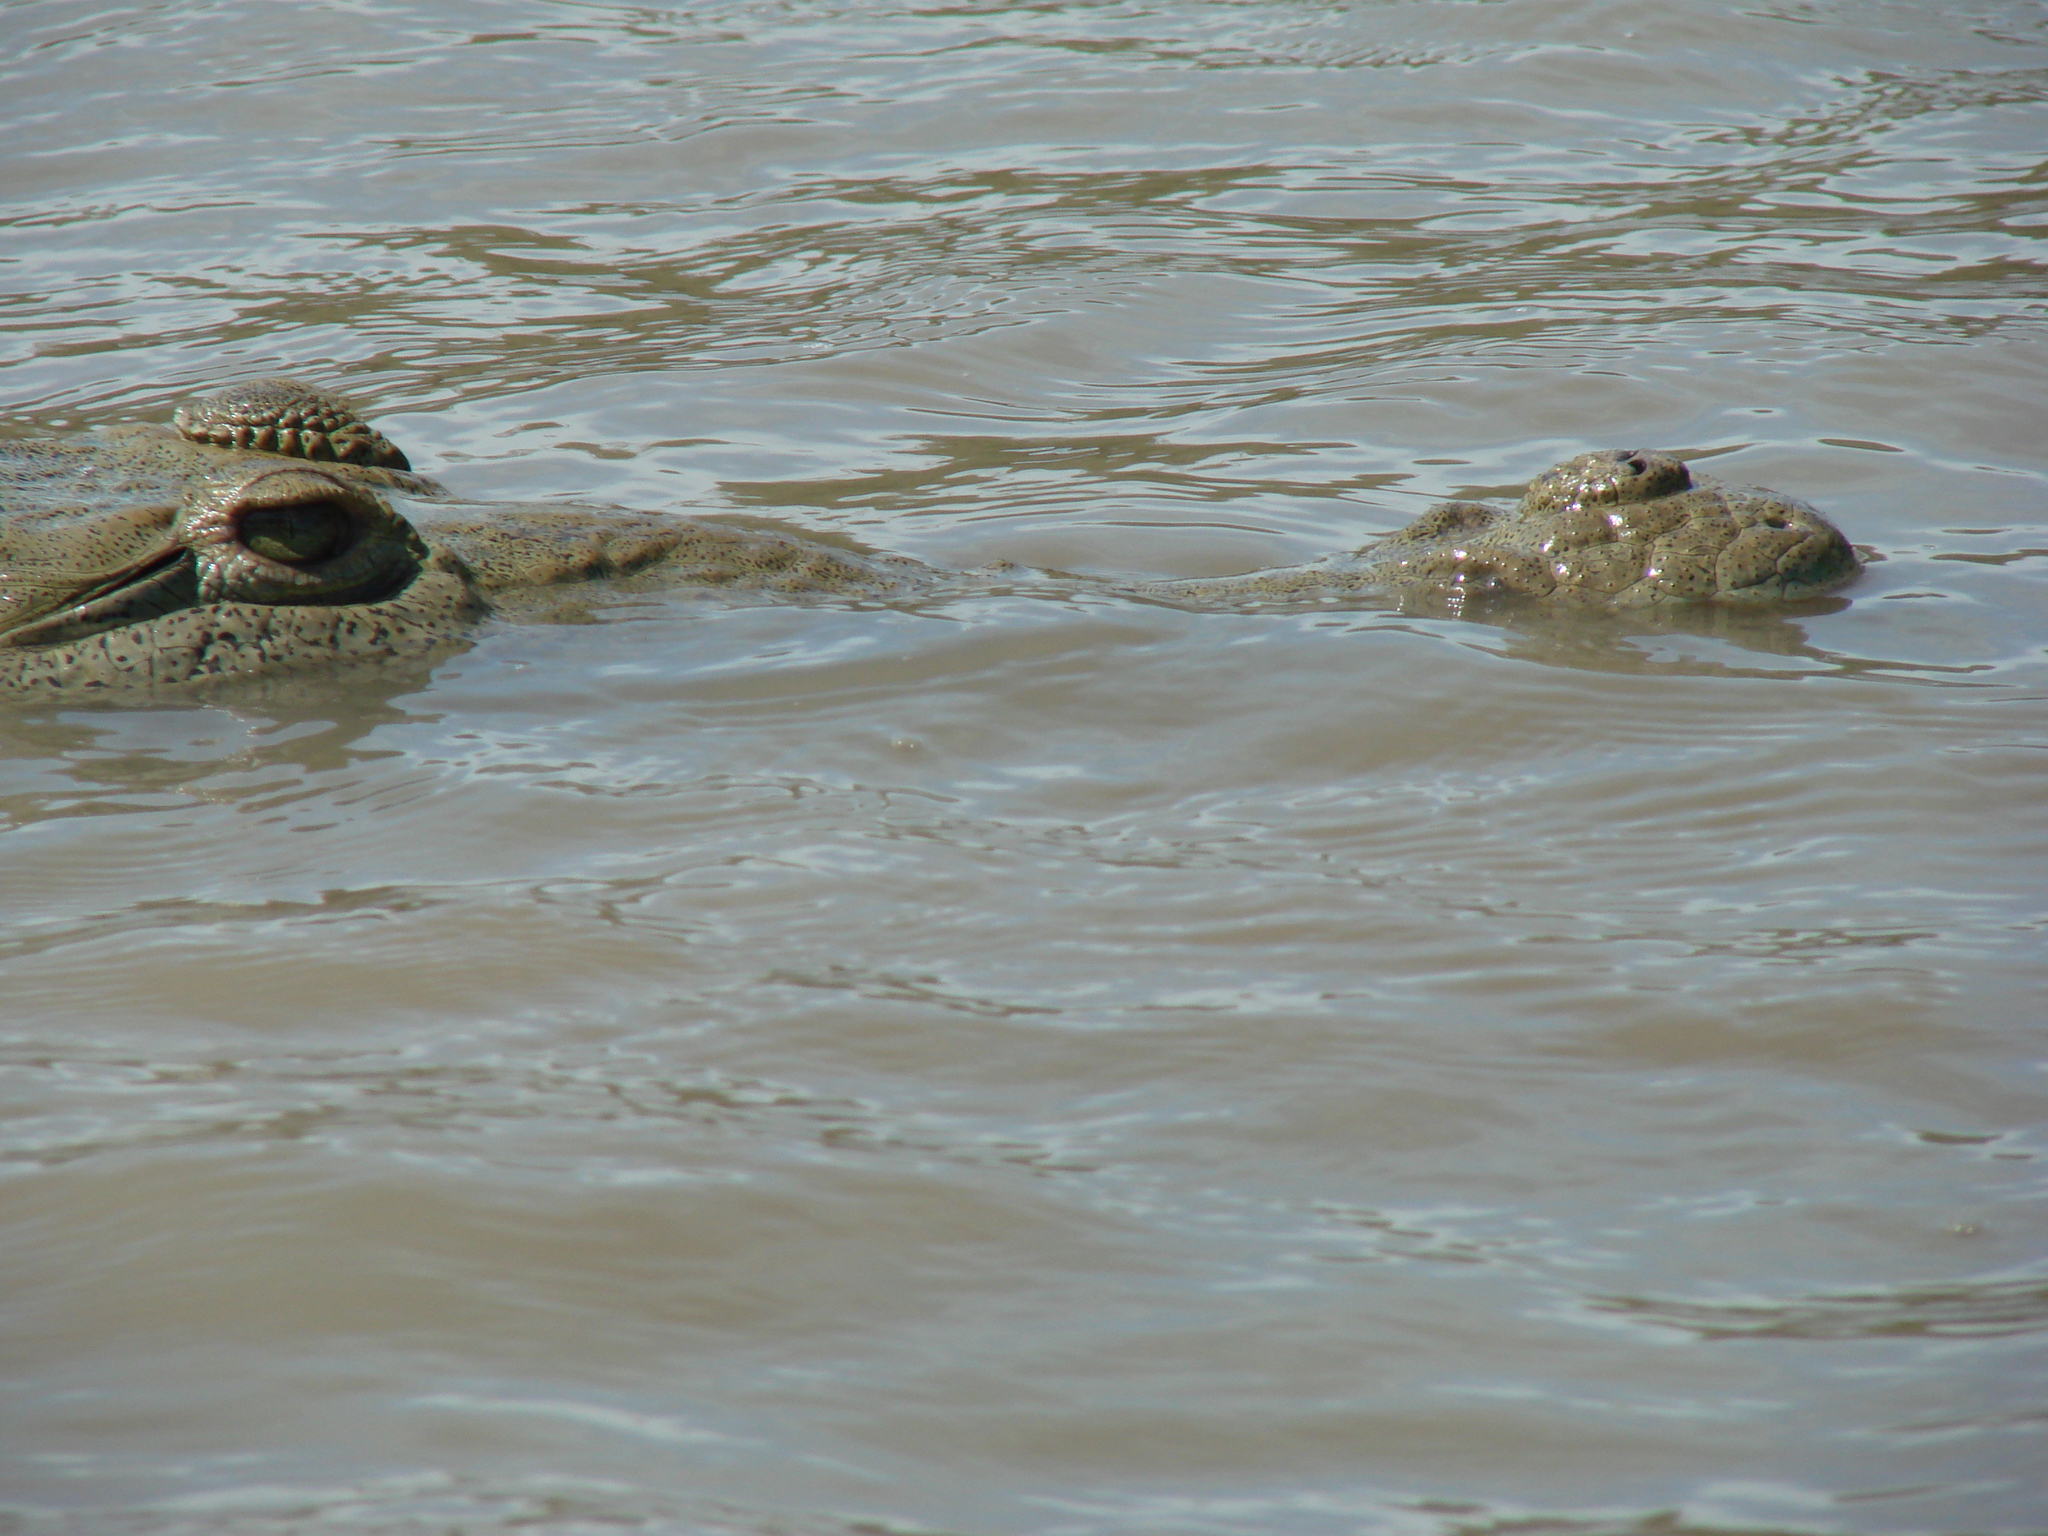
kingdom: Animalia
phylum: Chordata
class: Crocodylia
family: Crocodylidae
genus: Crocodylus
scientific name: Crocodylus acutus
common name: American crocodile
